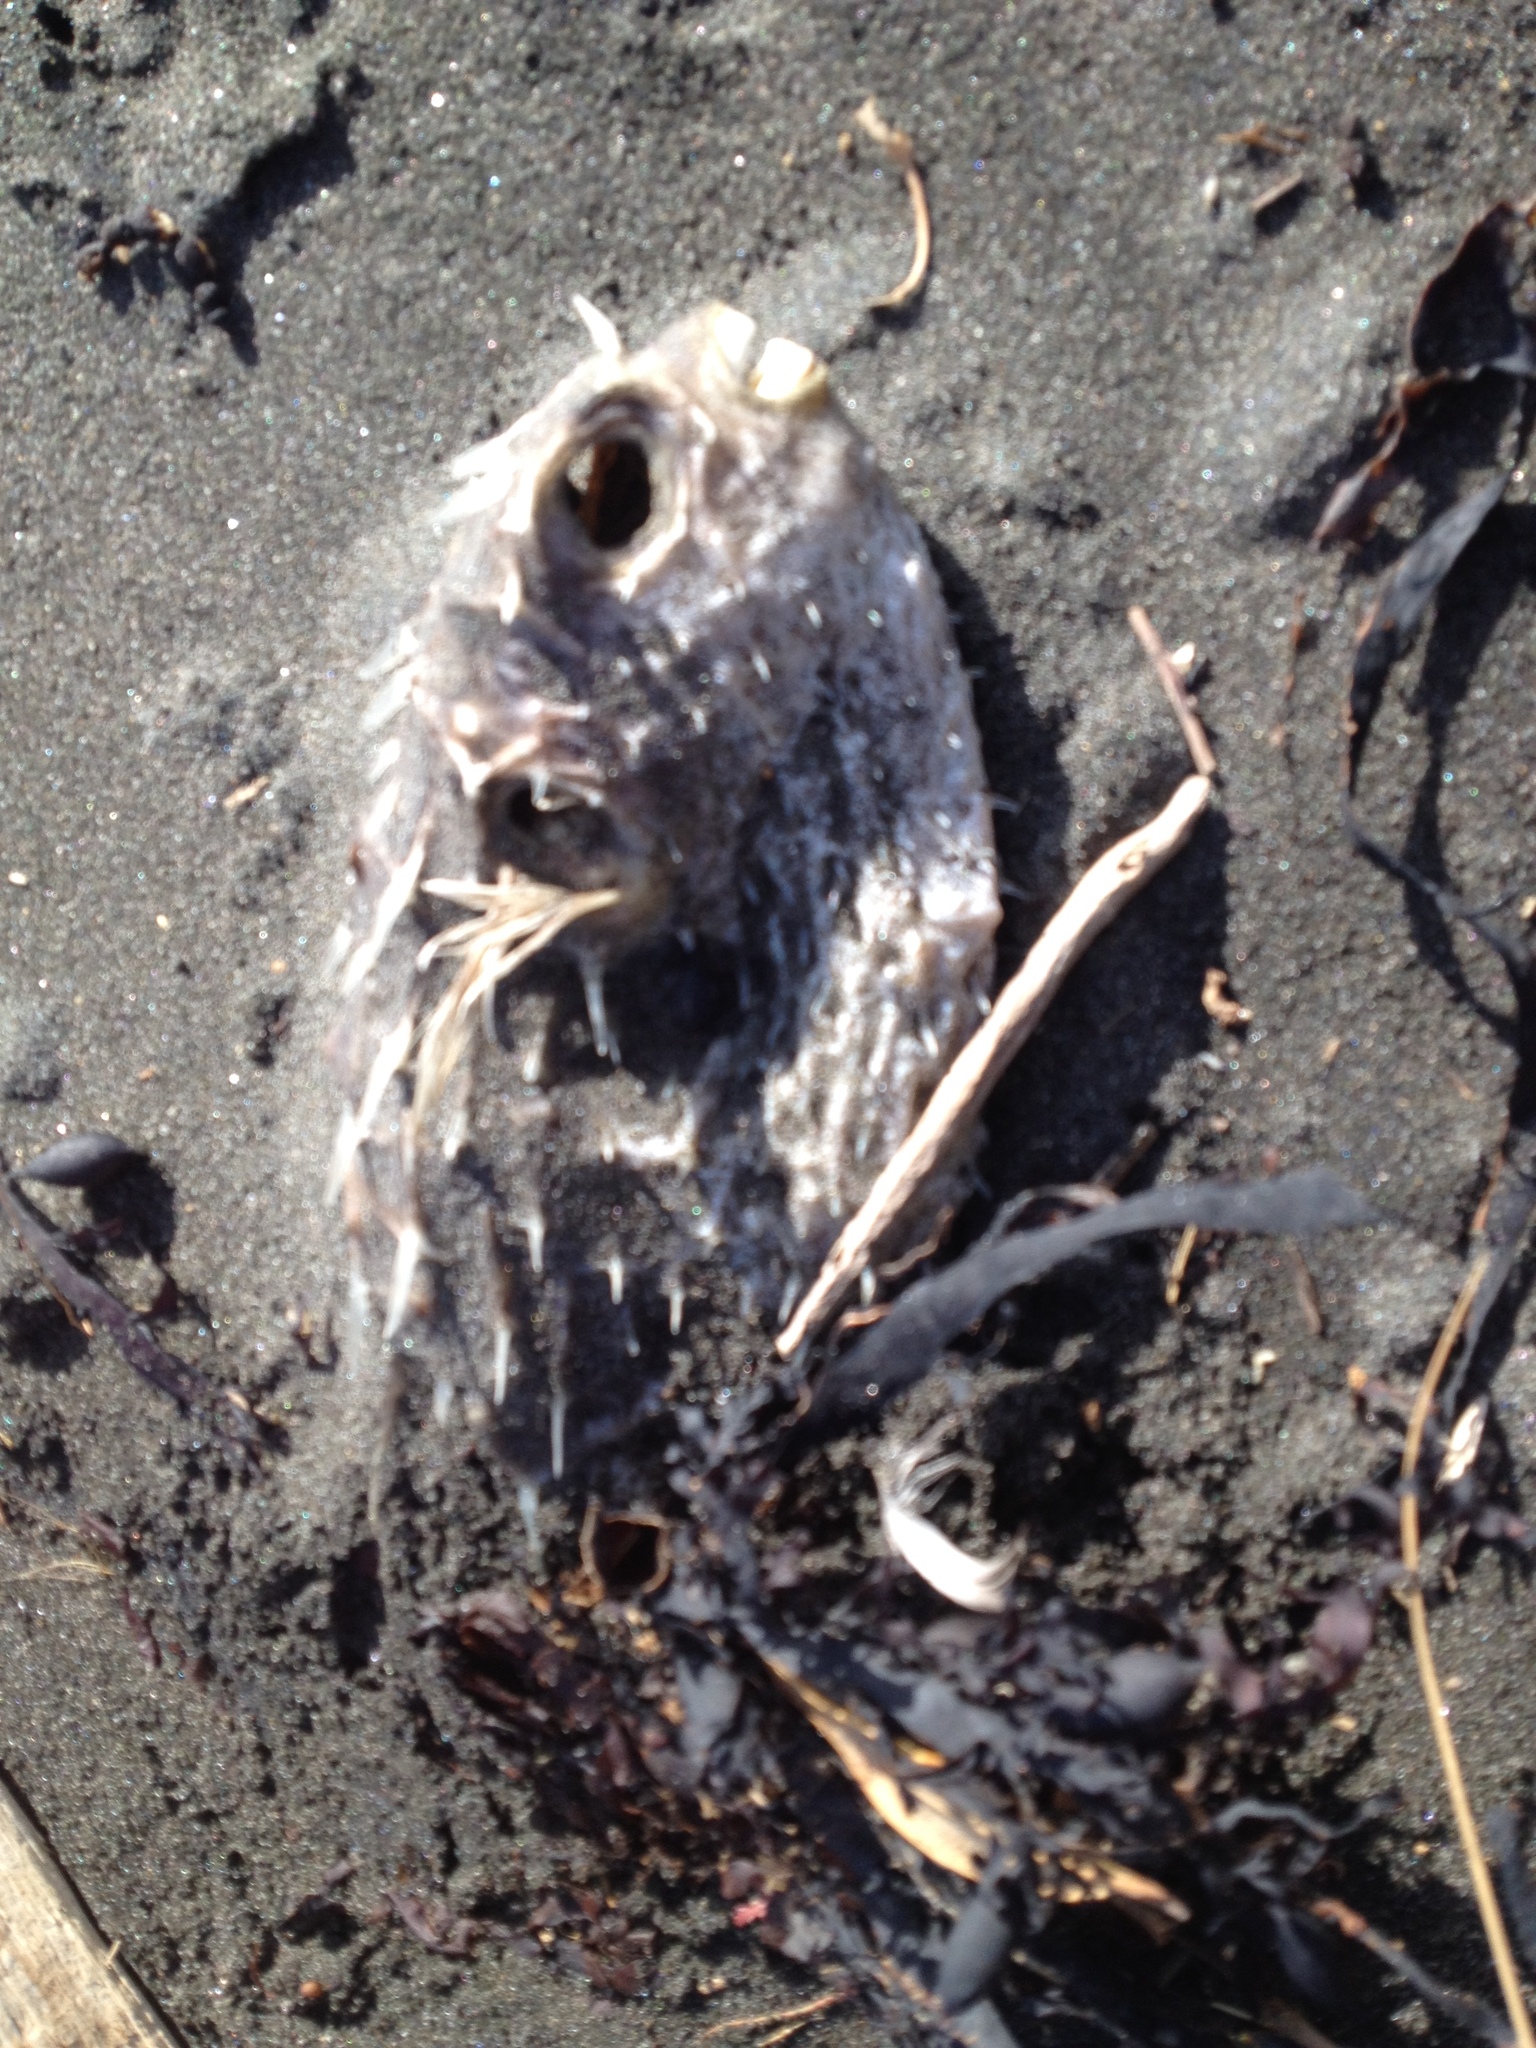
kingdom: Animalia
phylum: Chordata
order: Tetraodontiformes
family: Diodontidae
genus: Allomycterus
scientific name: Allomycterus pilatus
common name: No common name
